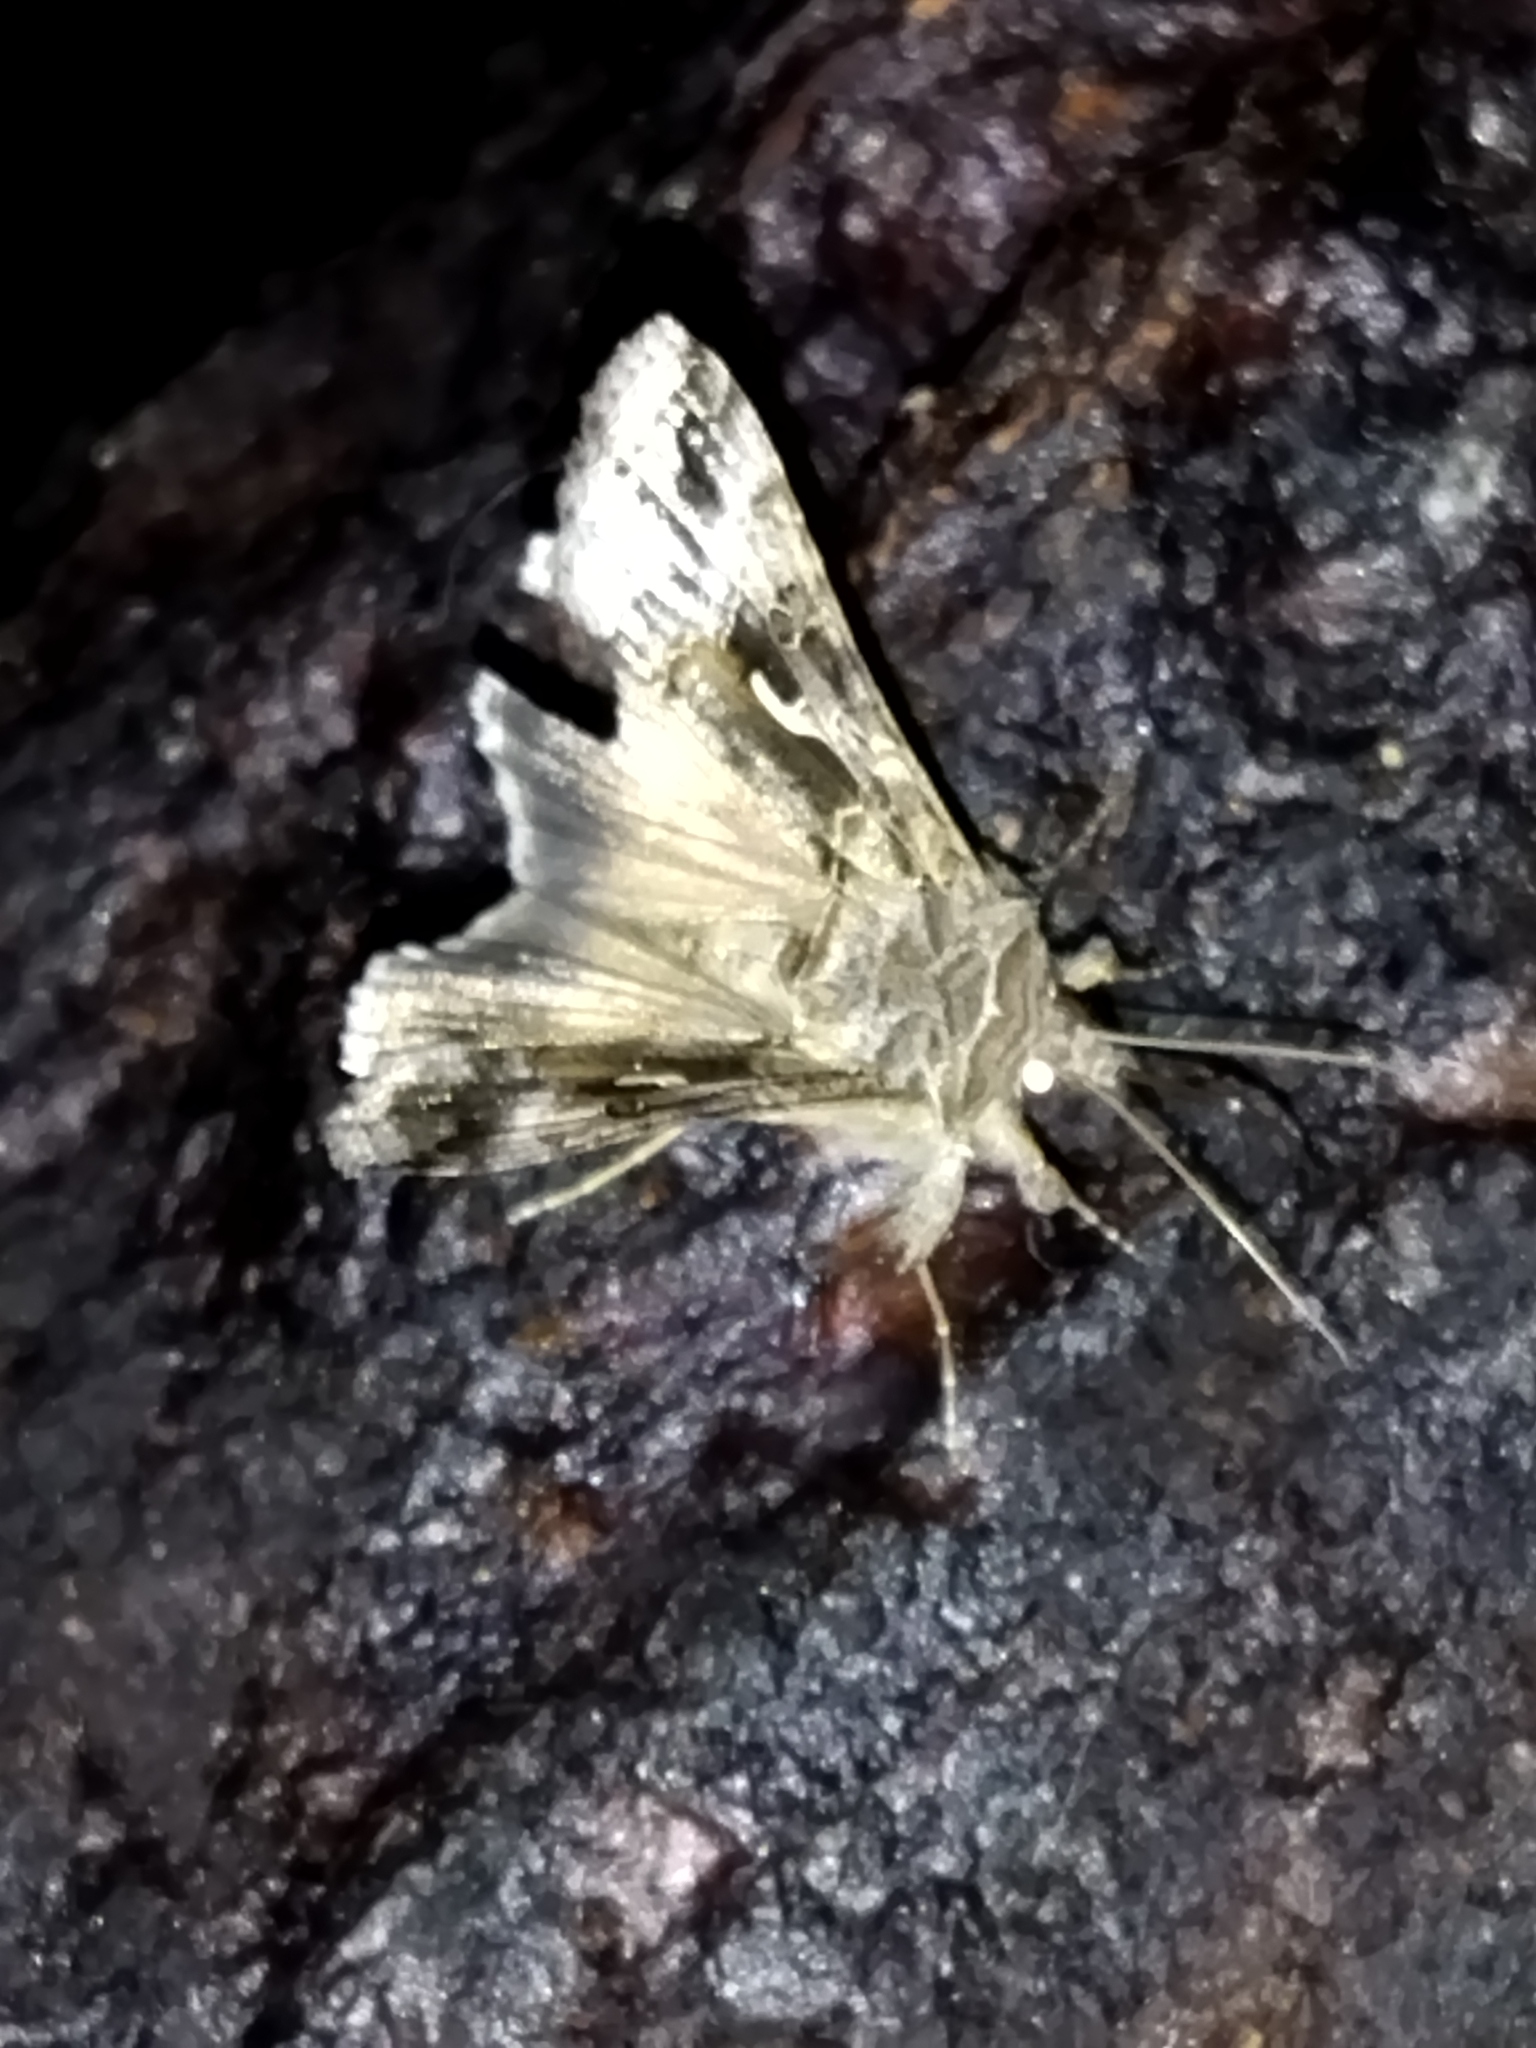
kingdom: Animalia
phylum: Arthropoda
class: Insecta
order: Lepidoptera
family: Noctuidae
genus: Autographa
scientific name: Autographa gamma
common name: Silver y
